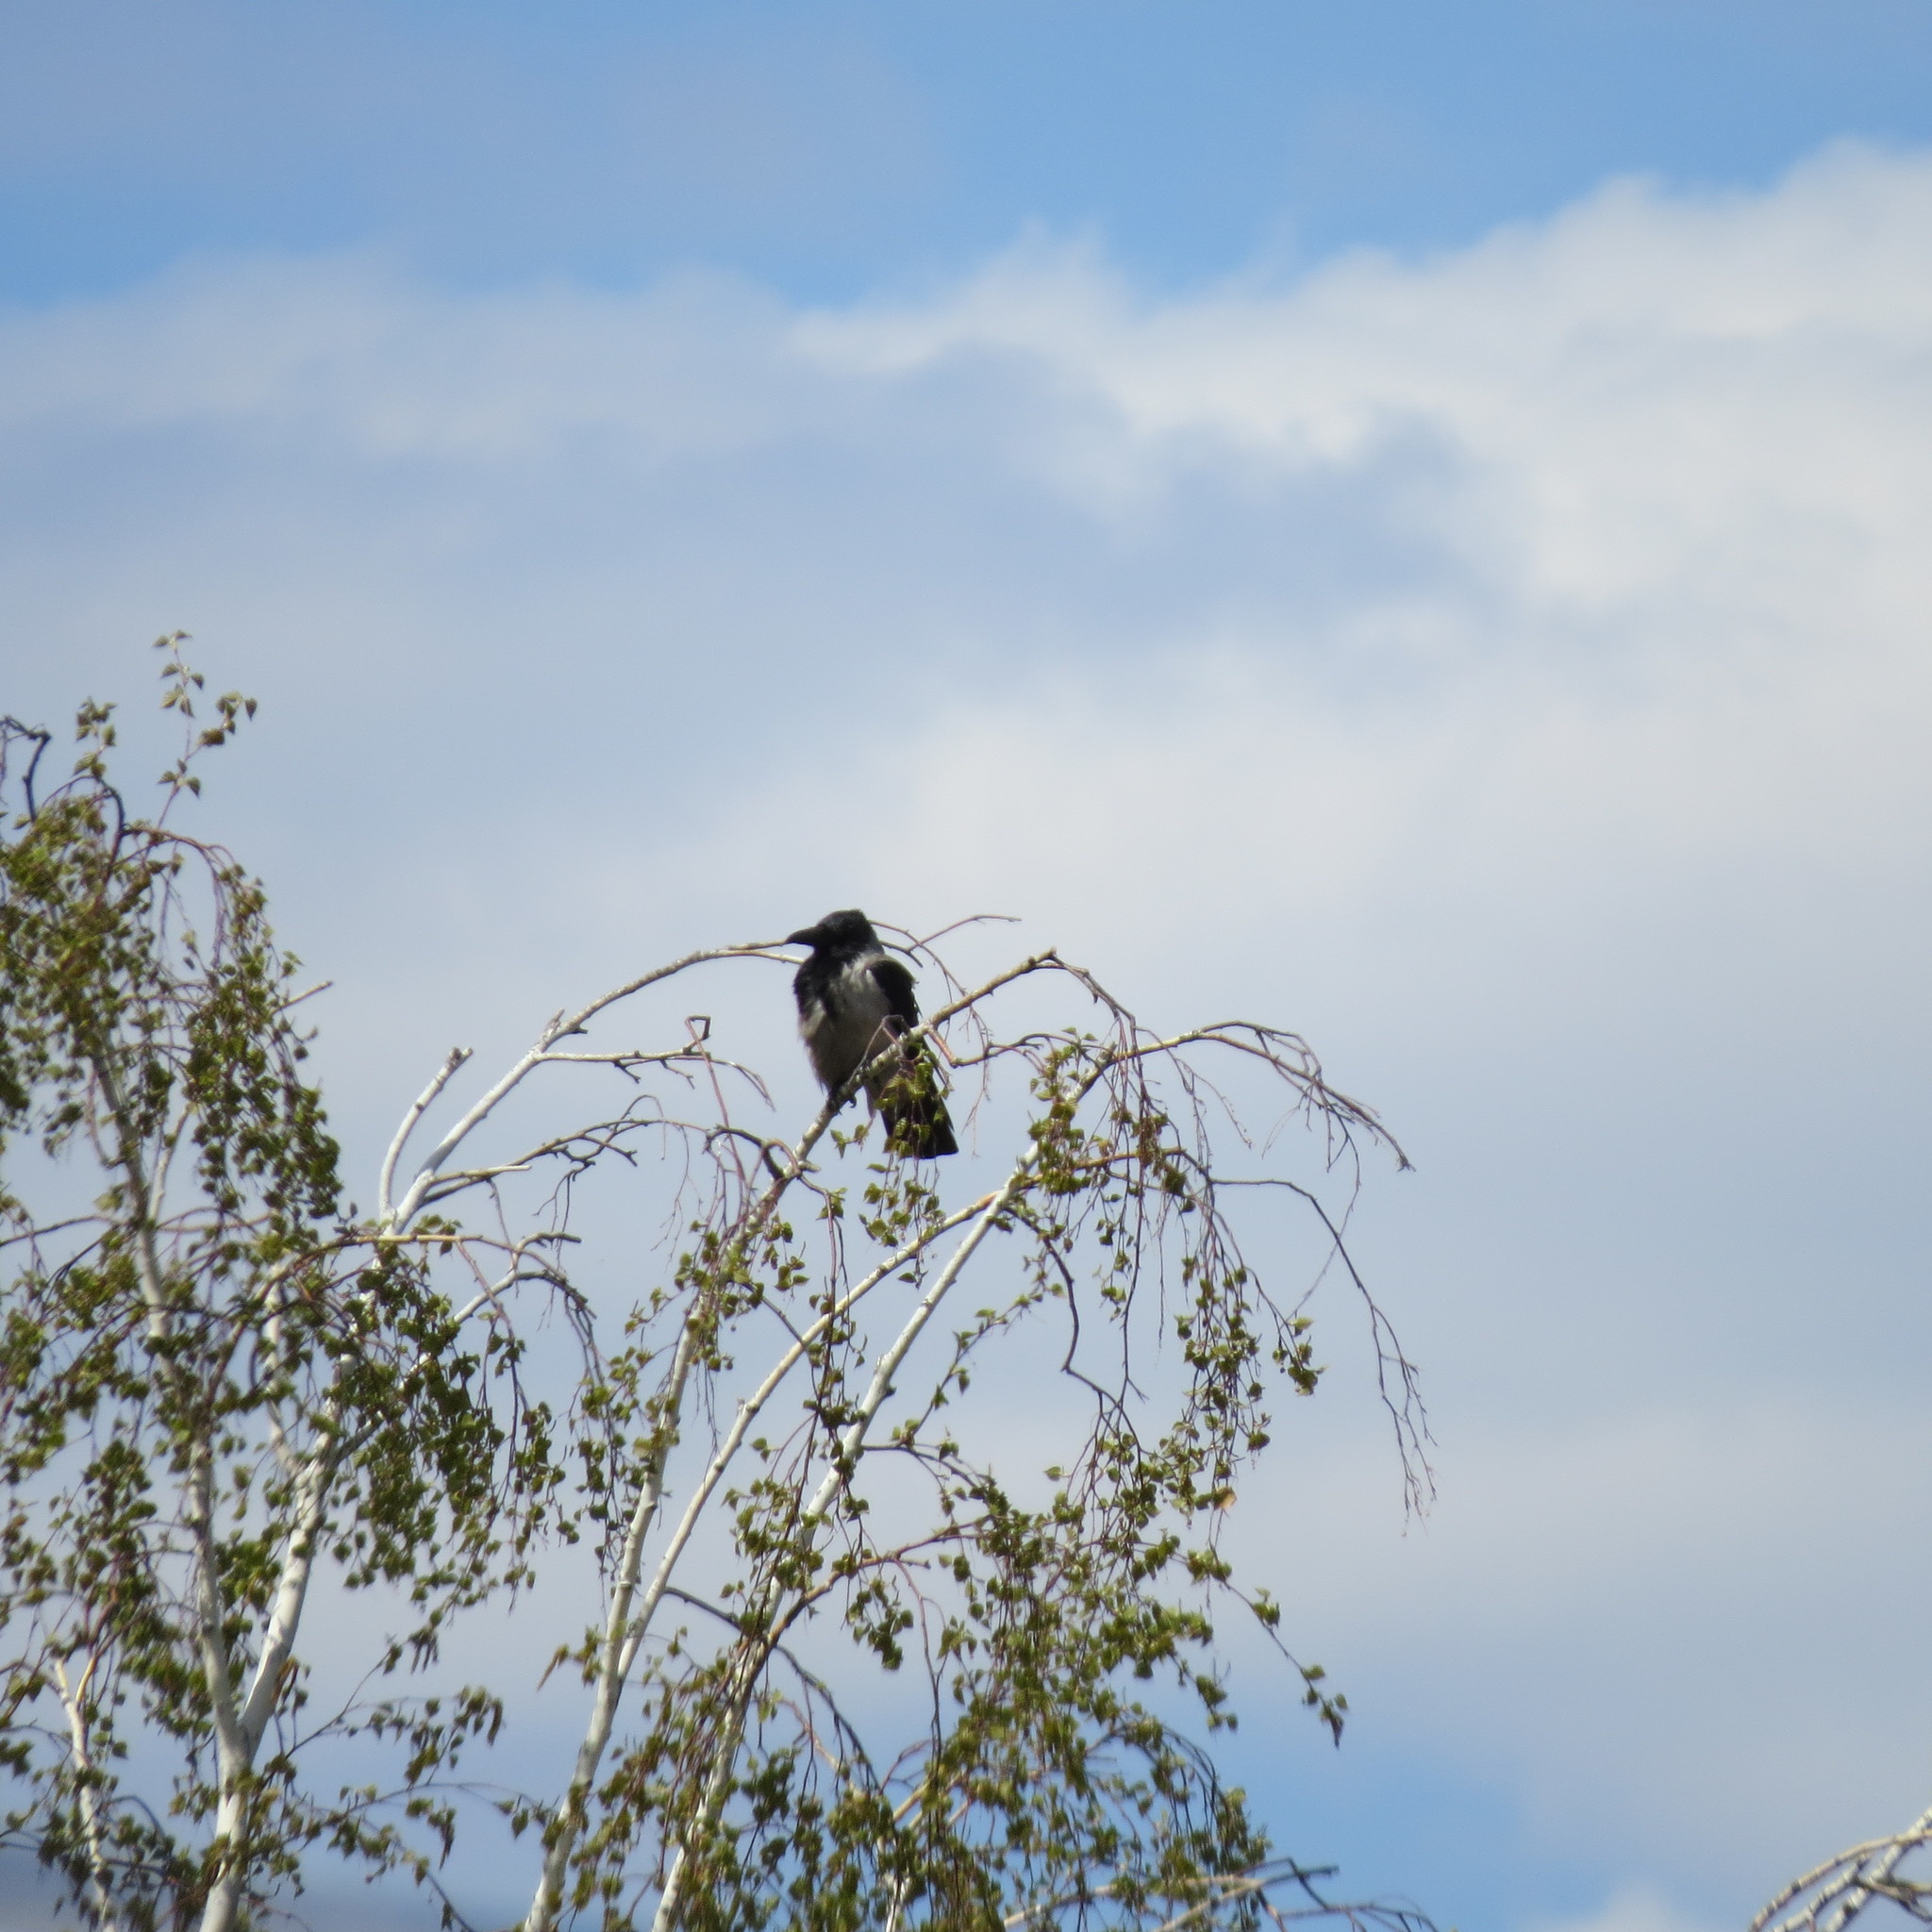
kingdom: Animalia
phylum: Chordata
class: Aves
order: Passeriformes
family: Corvidae
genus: Corvus
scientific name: Corvus cornix
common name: Hooded crow
